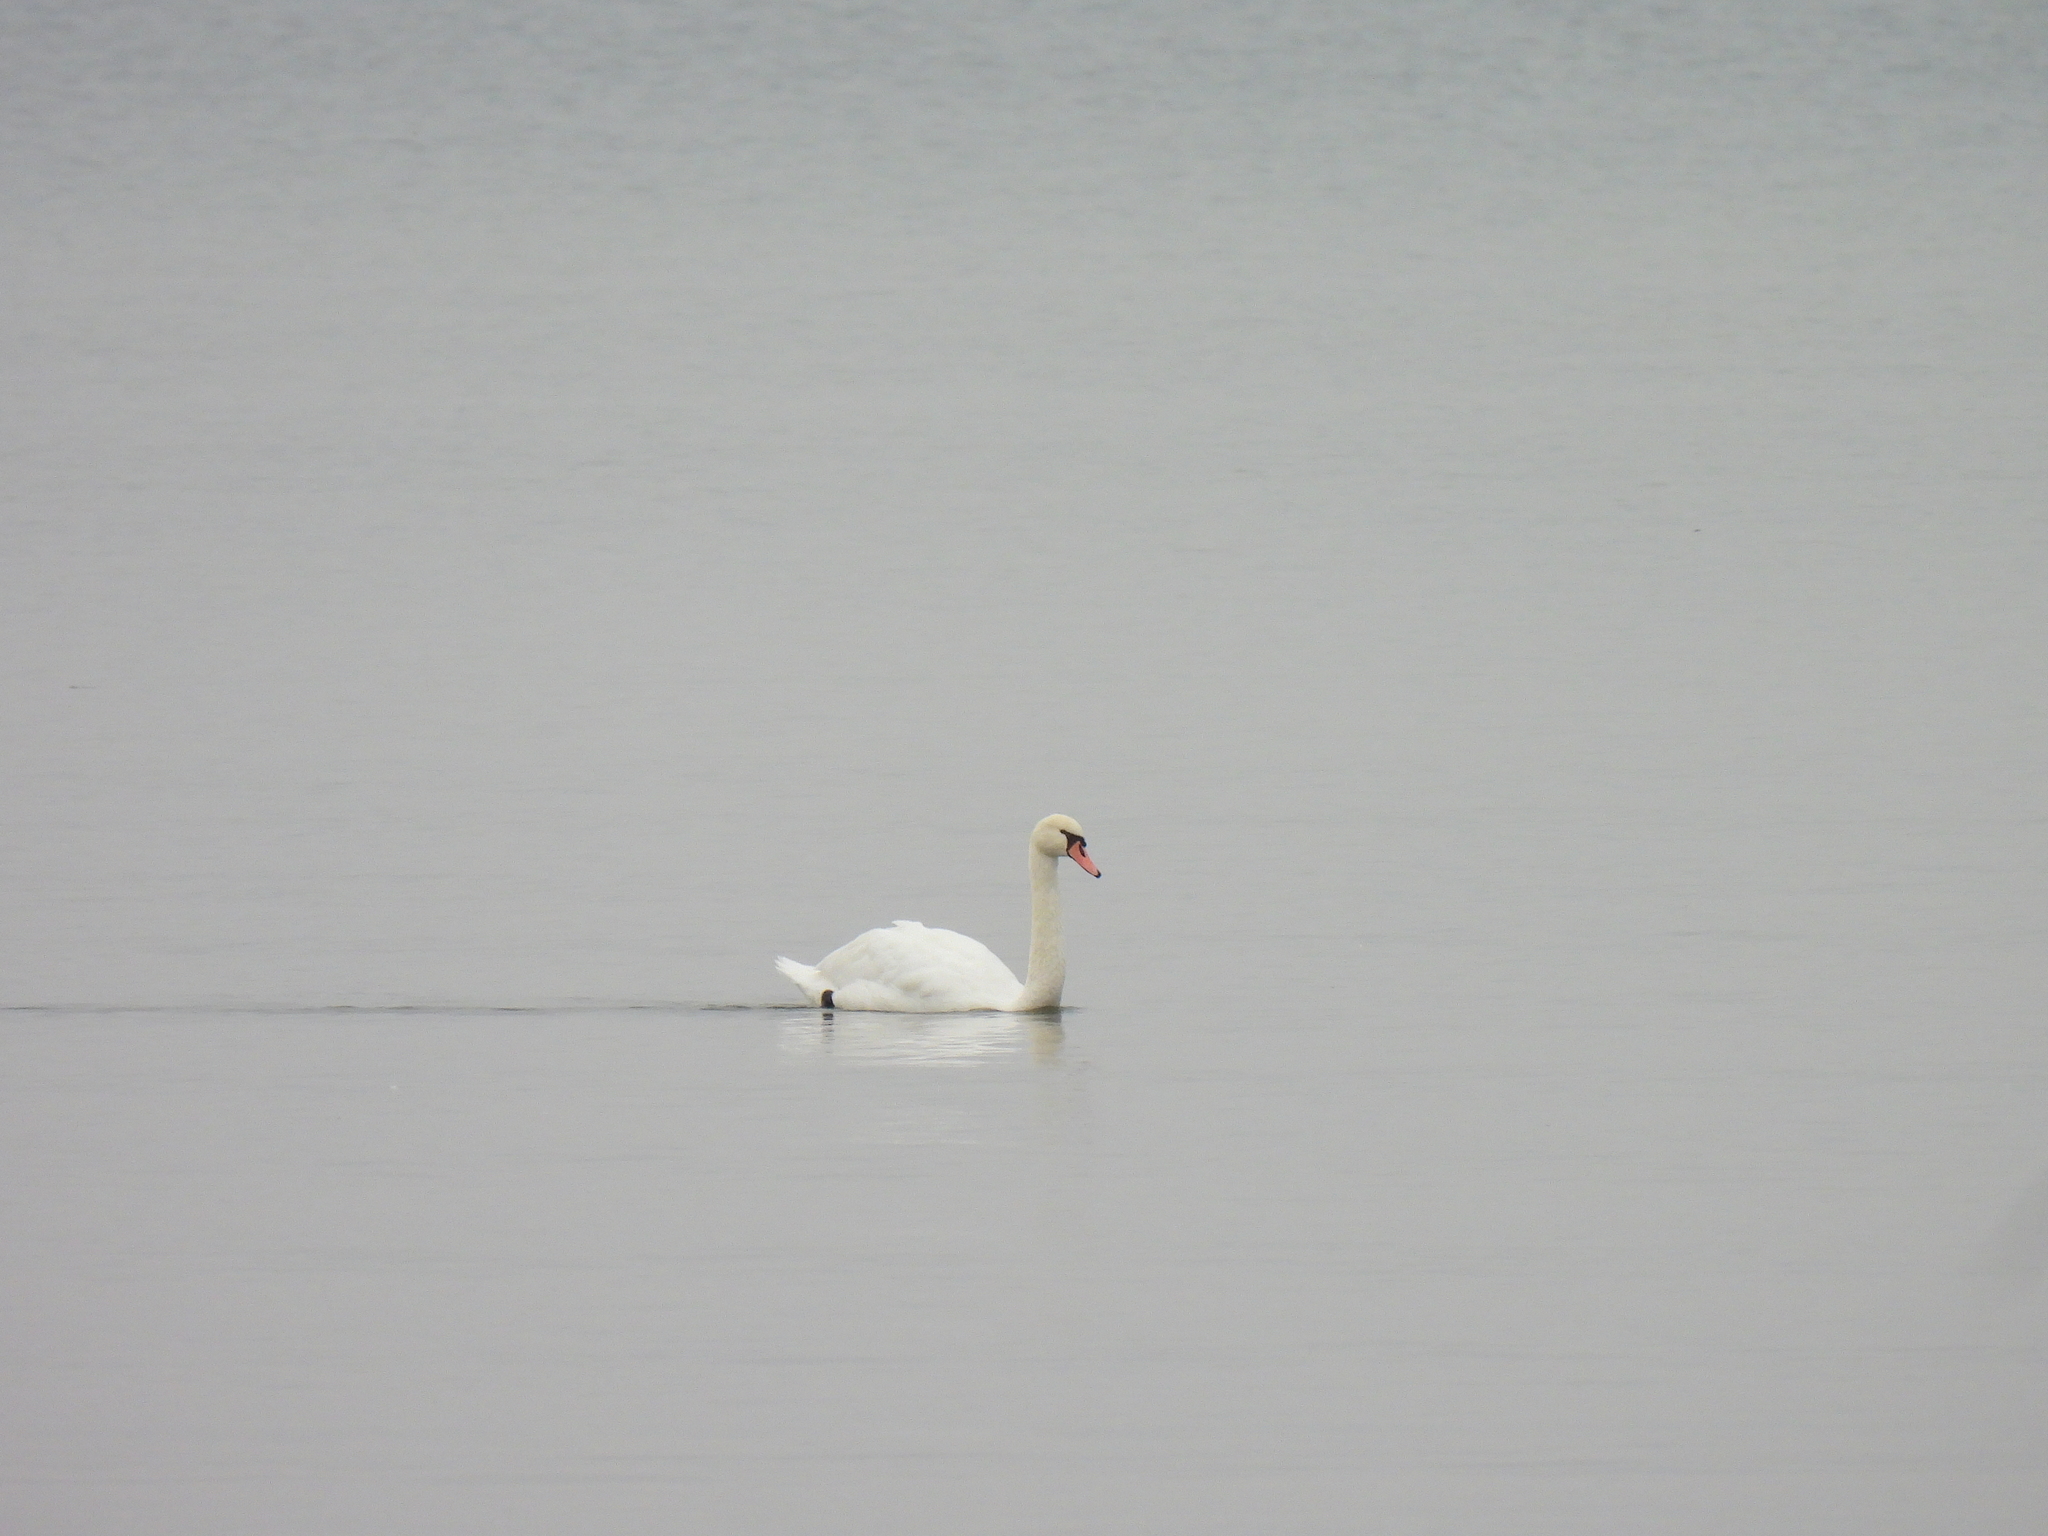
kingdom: Animalia
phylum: Chordata
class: Aves
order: Anseriformes
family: Anatidae
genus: Cygnus
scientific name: Cygnus olor
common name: Mute swan
